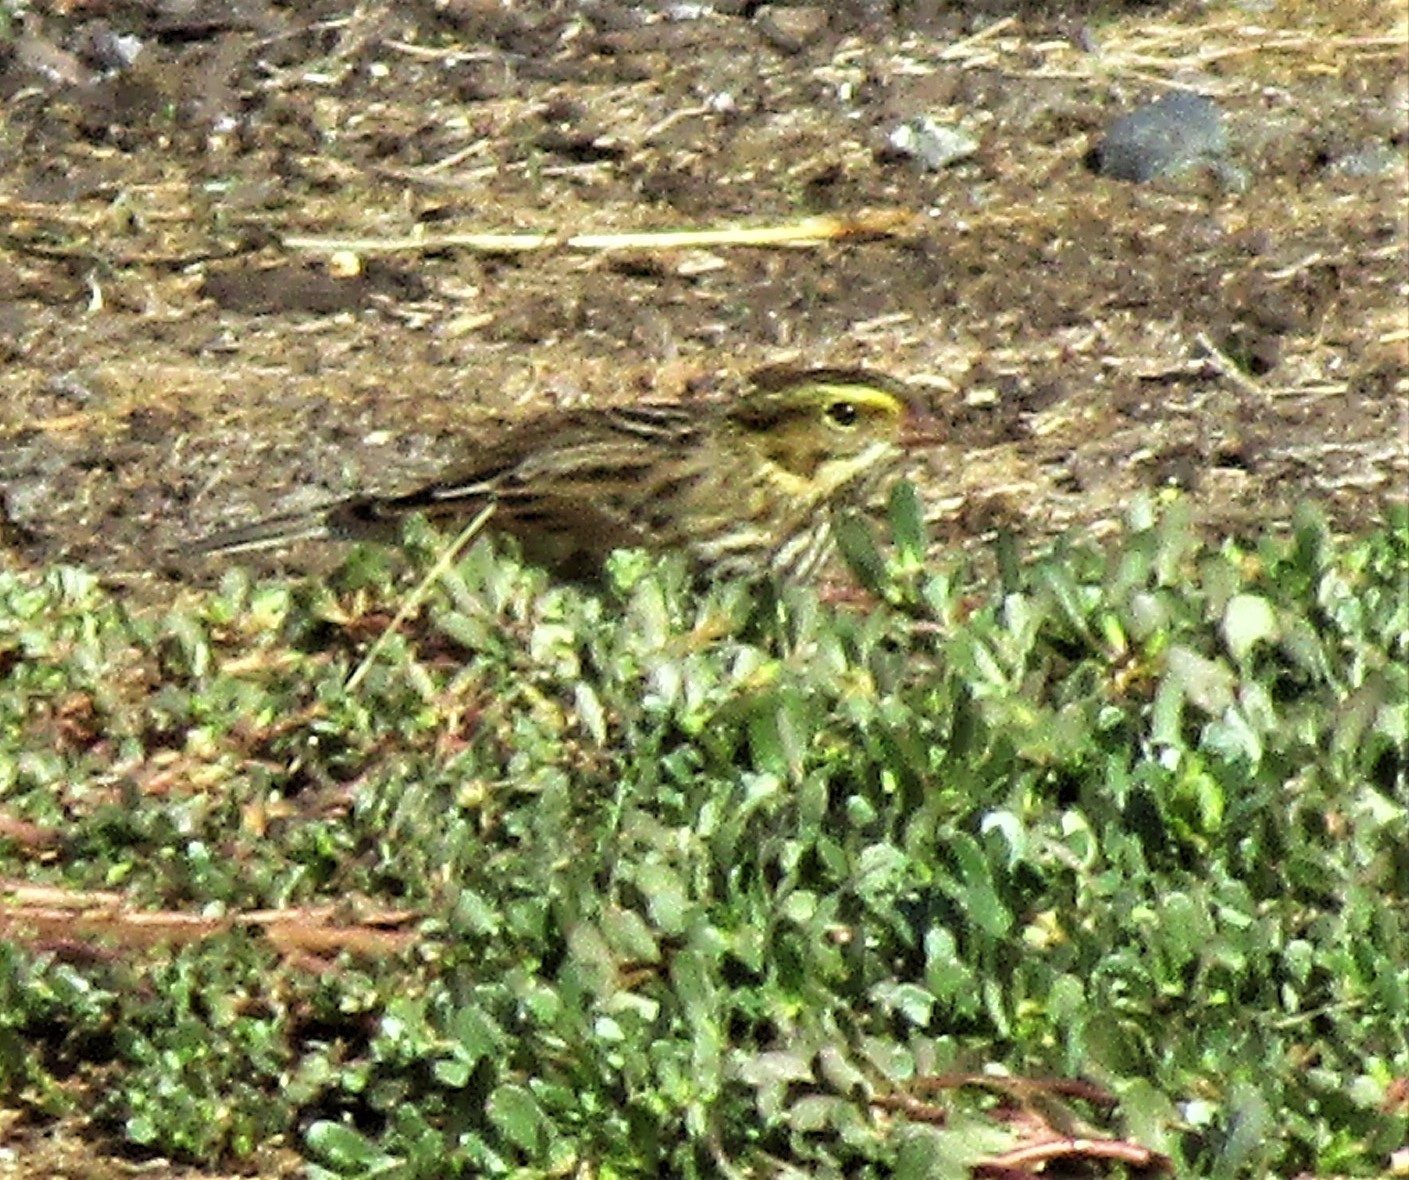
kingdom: Animalia
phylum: Chordata
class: Aves
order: Passeriformes
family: Passerellidae
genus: Passerculus
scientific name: Passerculus sandwichensis
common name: Savannah sparrow
